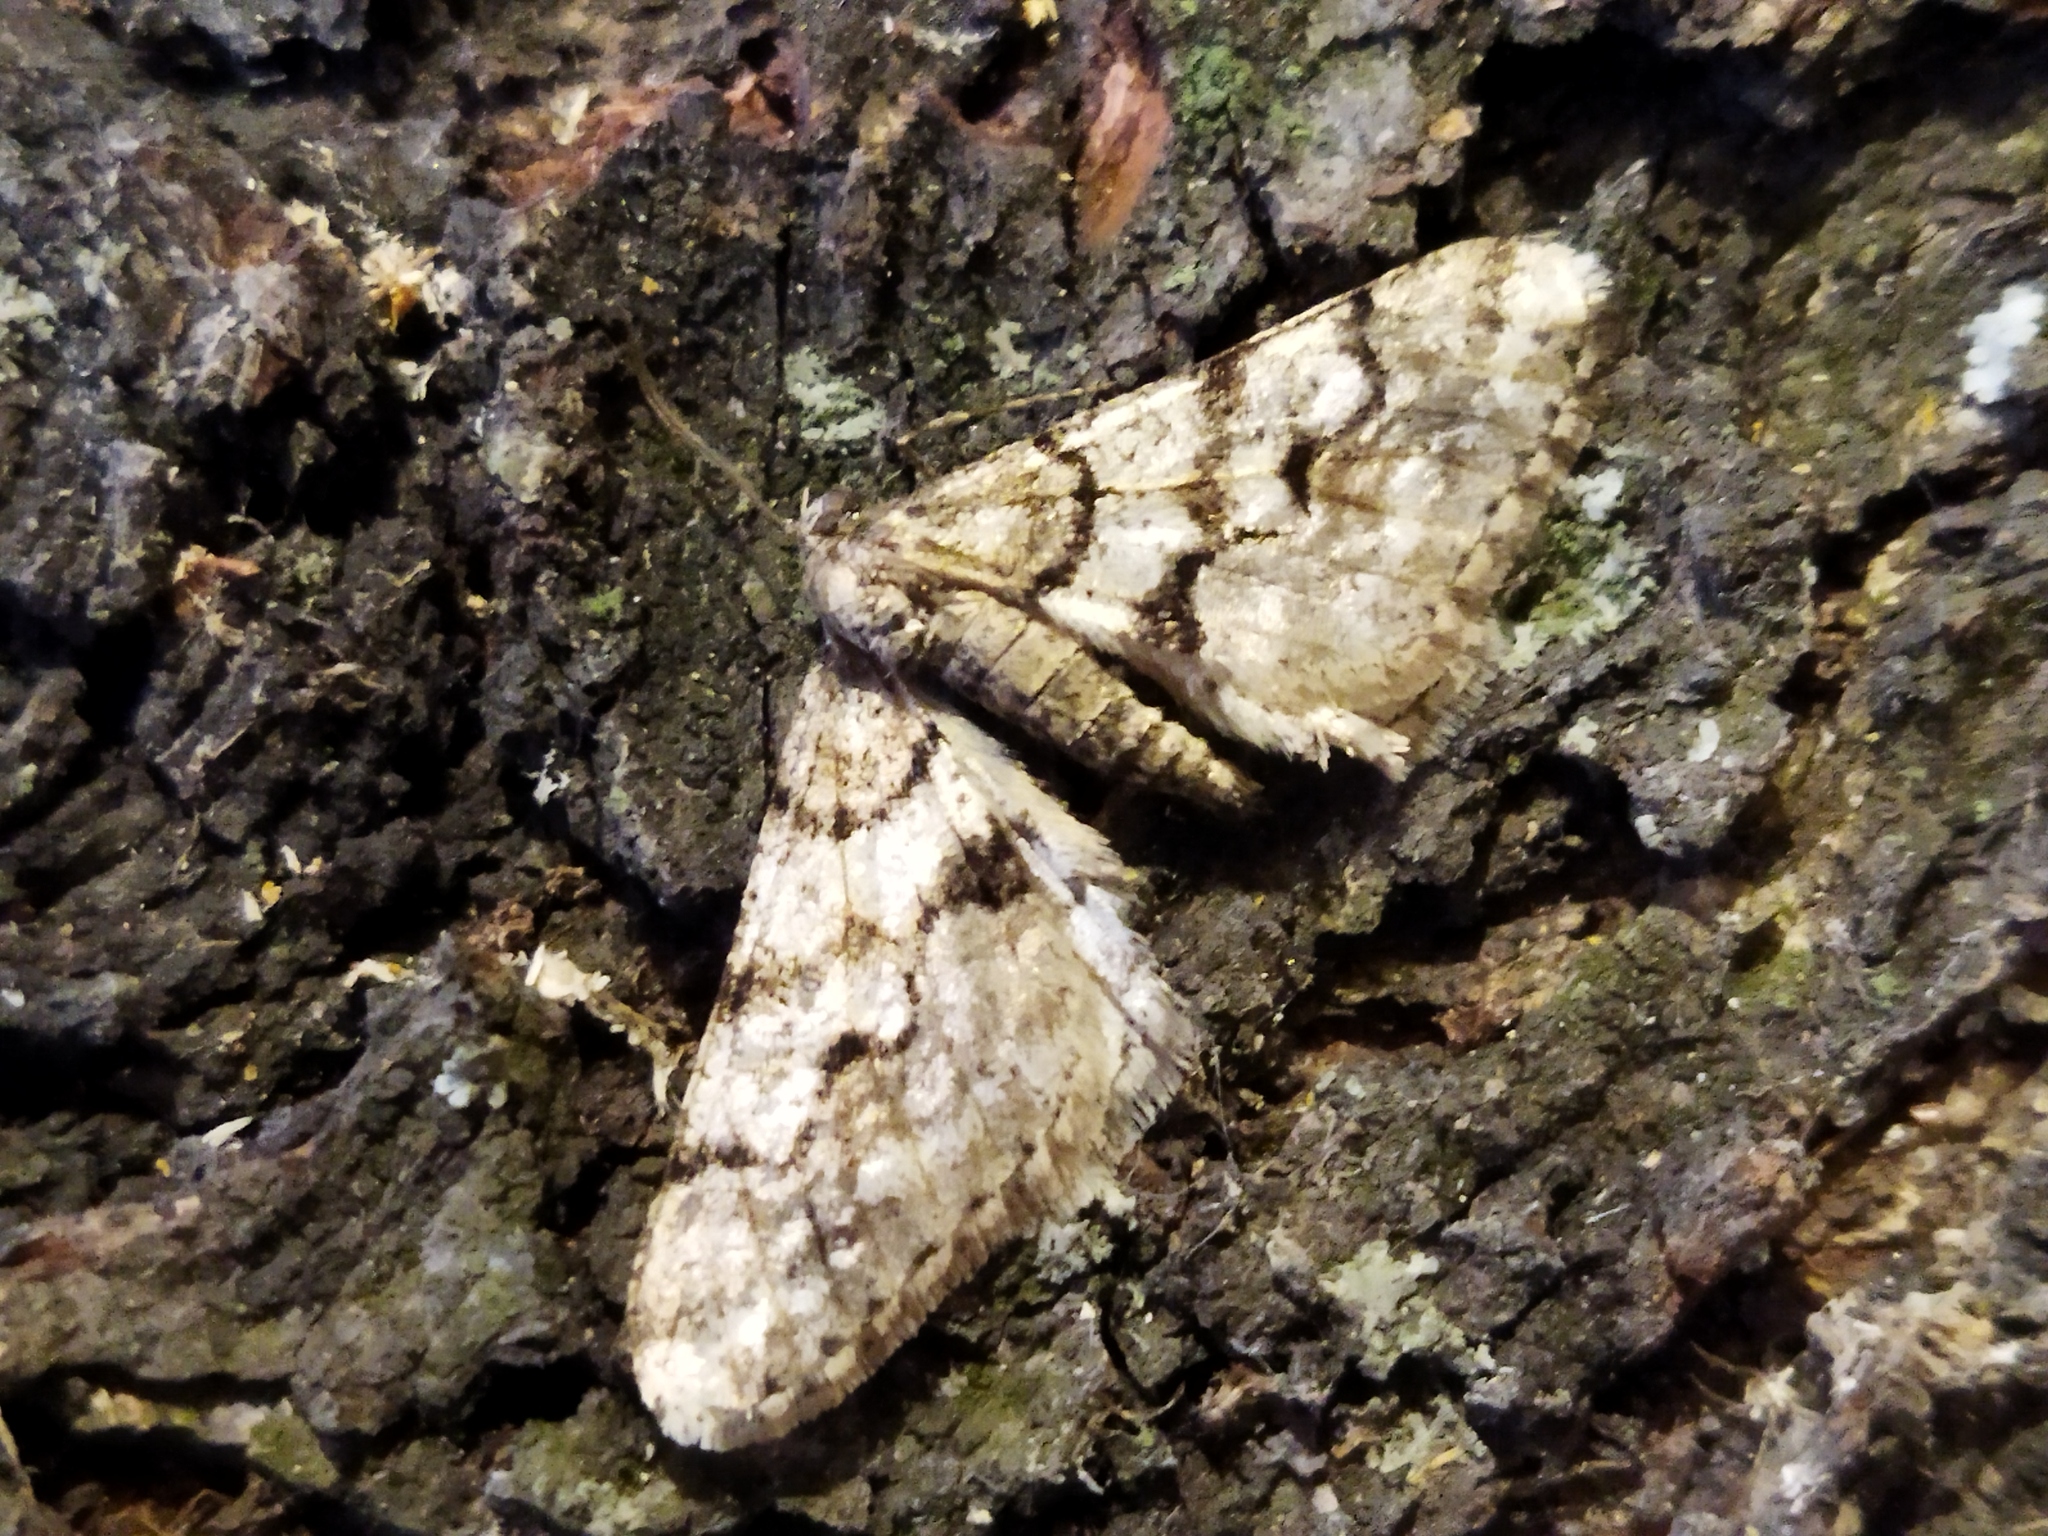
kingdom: Animalia
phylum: Arthropoda
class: Insecta
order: Lepidoptera
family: Geometridae
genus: Agriopis
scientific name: Agriopis leucophaearia
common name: Spring usher
